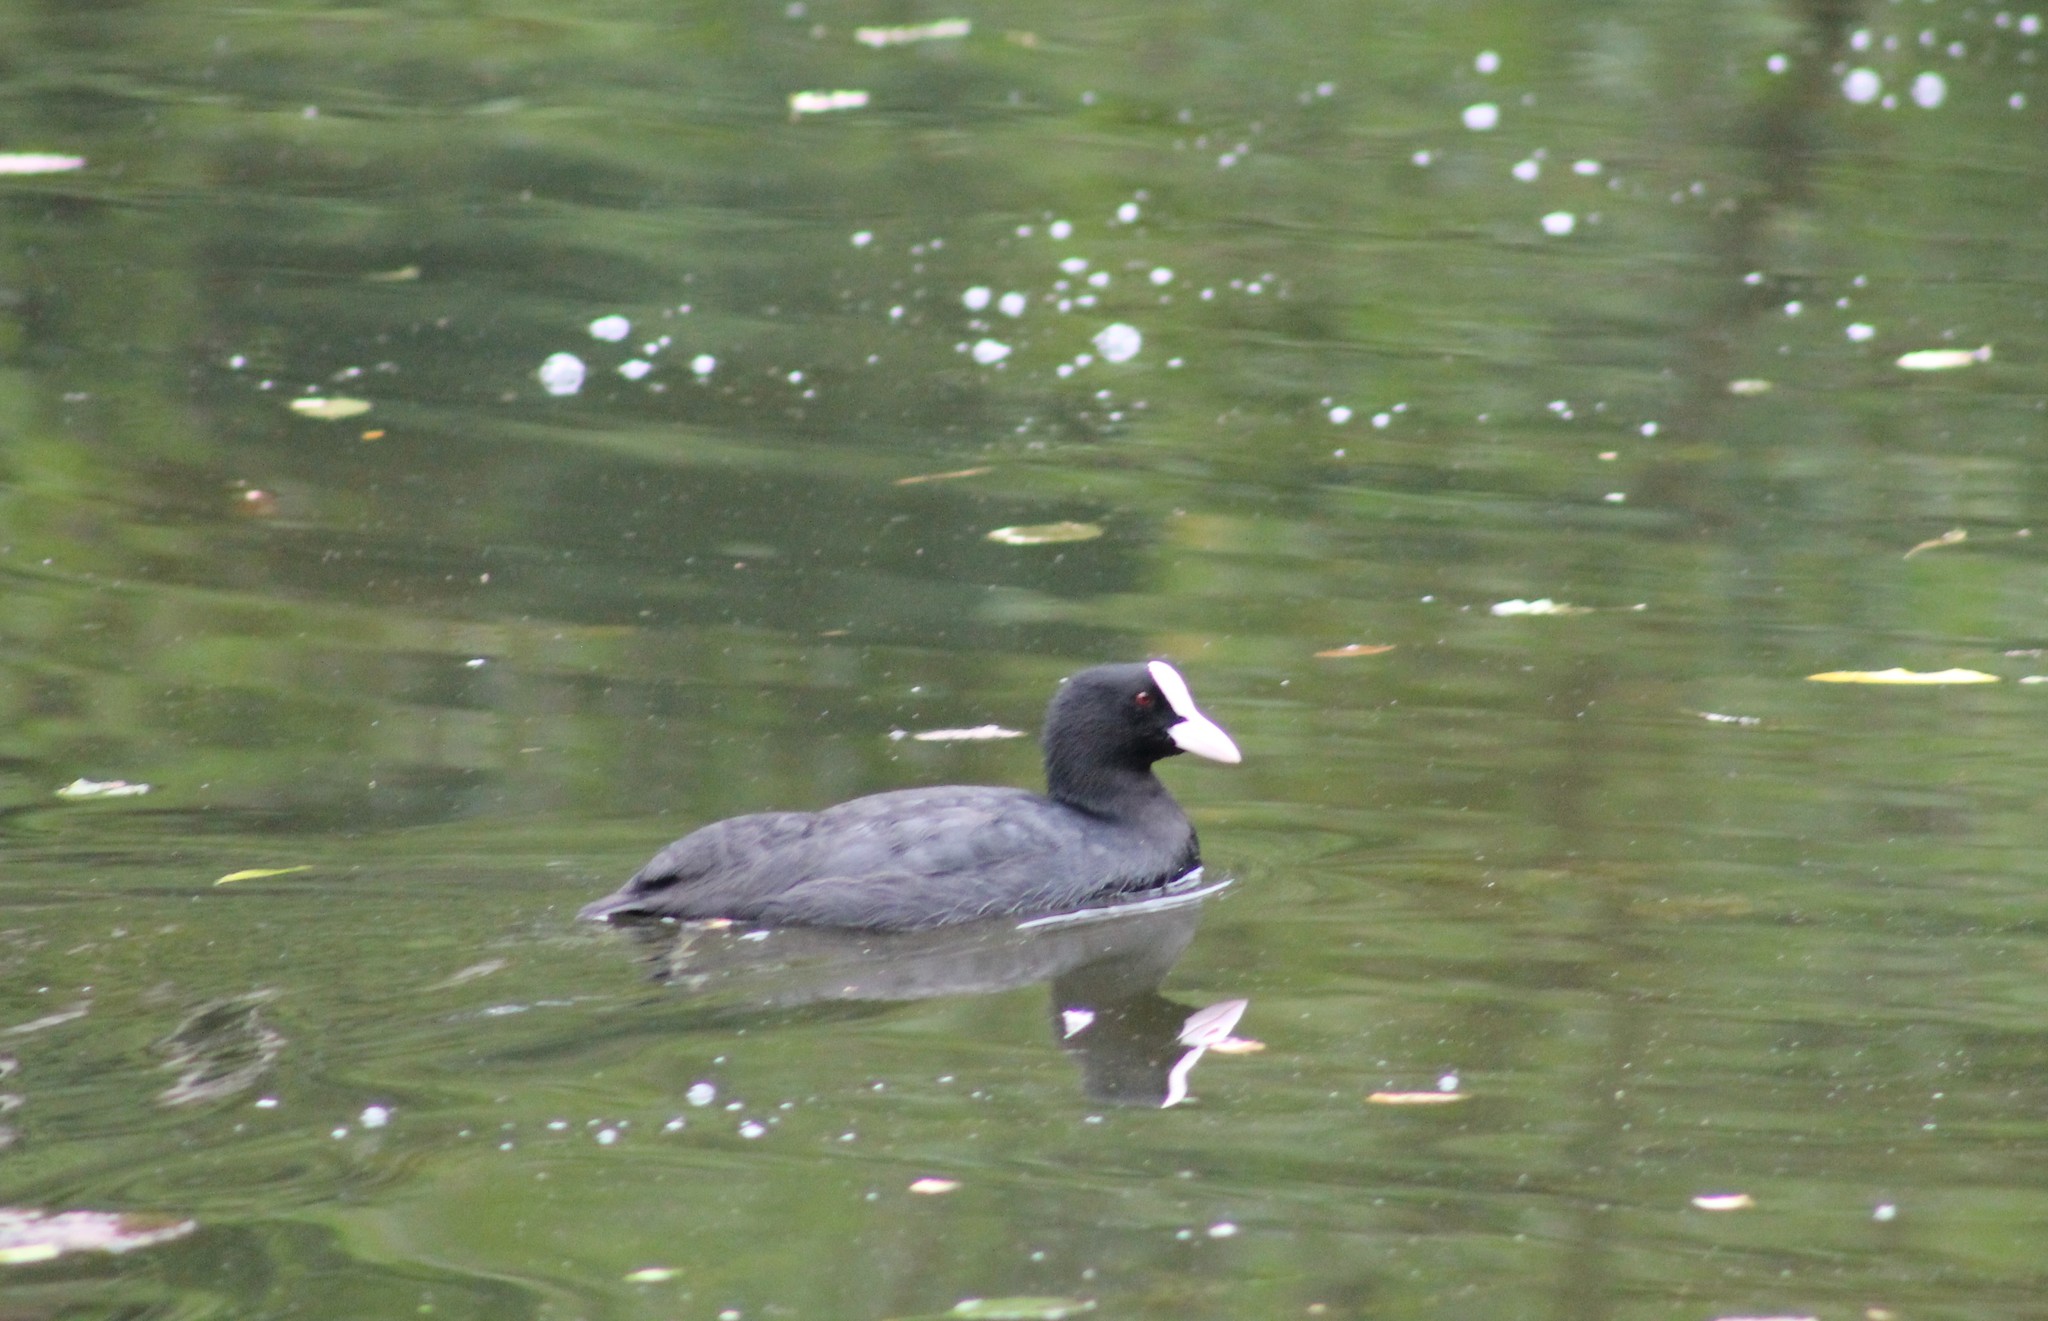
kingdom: Animalia
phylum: Chordata
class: Aves
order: Gruiformes
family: Rallidae
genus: Fulica
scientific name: Fulica atra
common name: Eurasian coot
